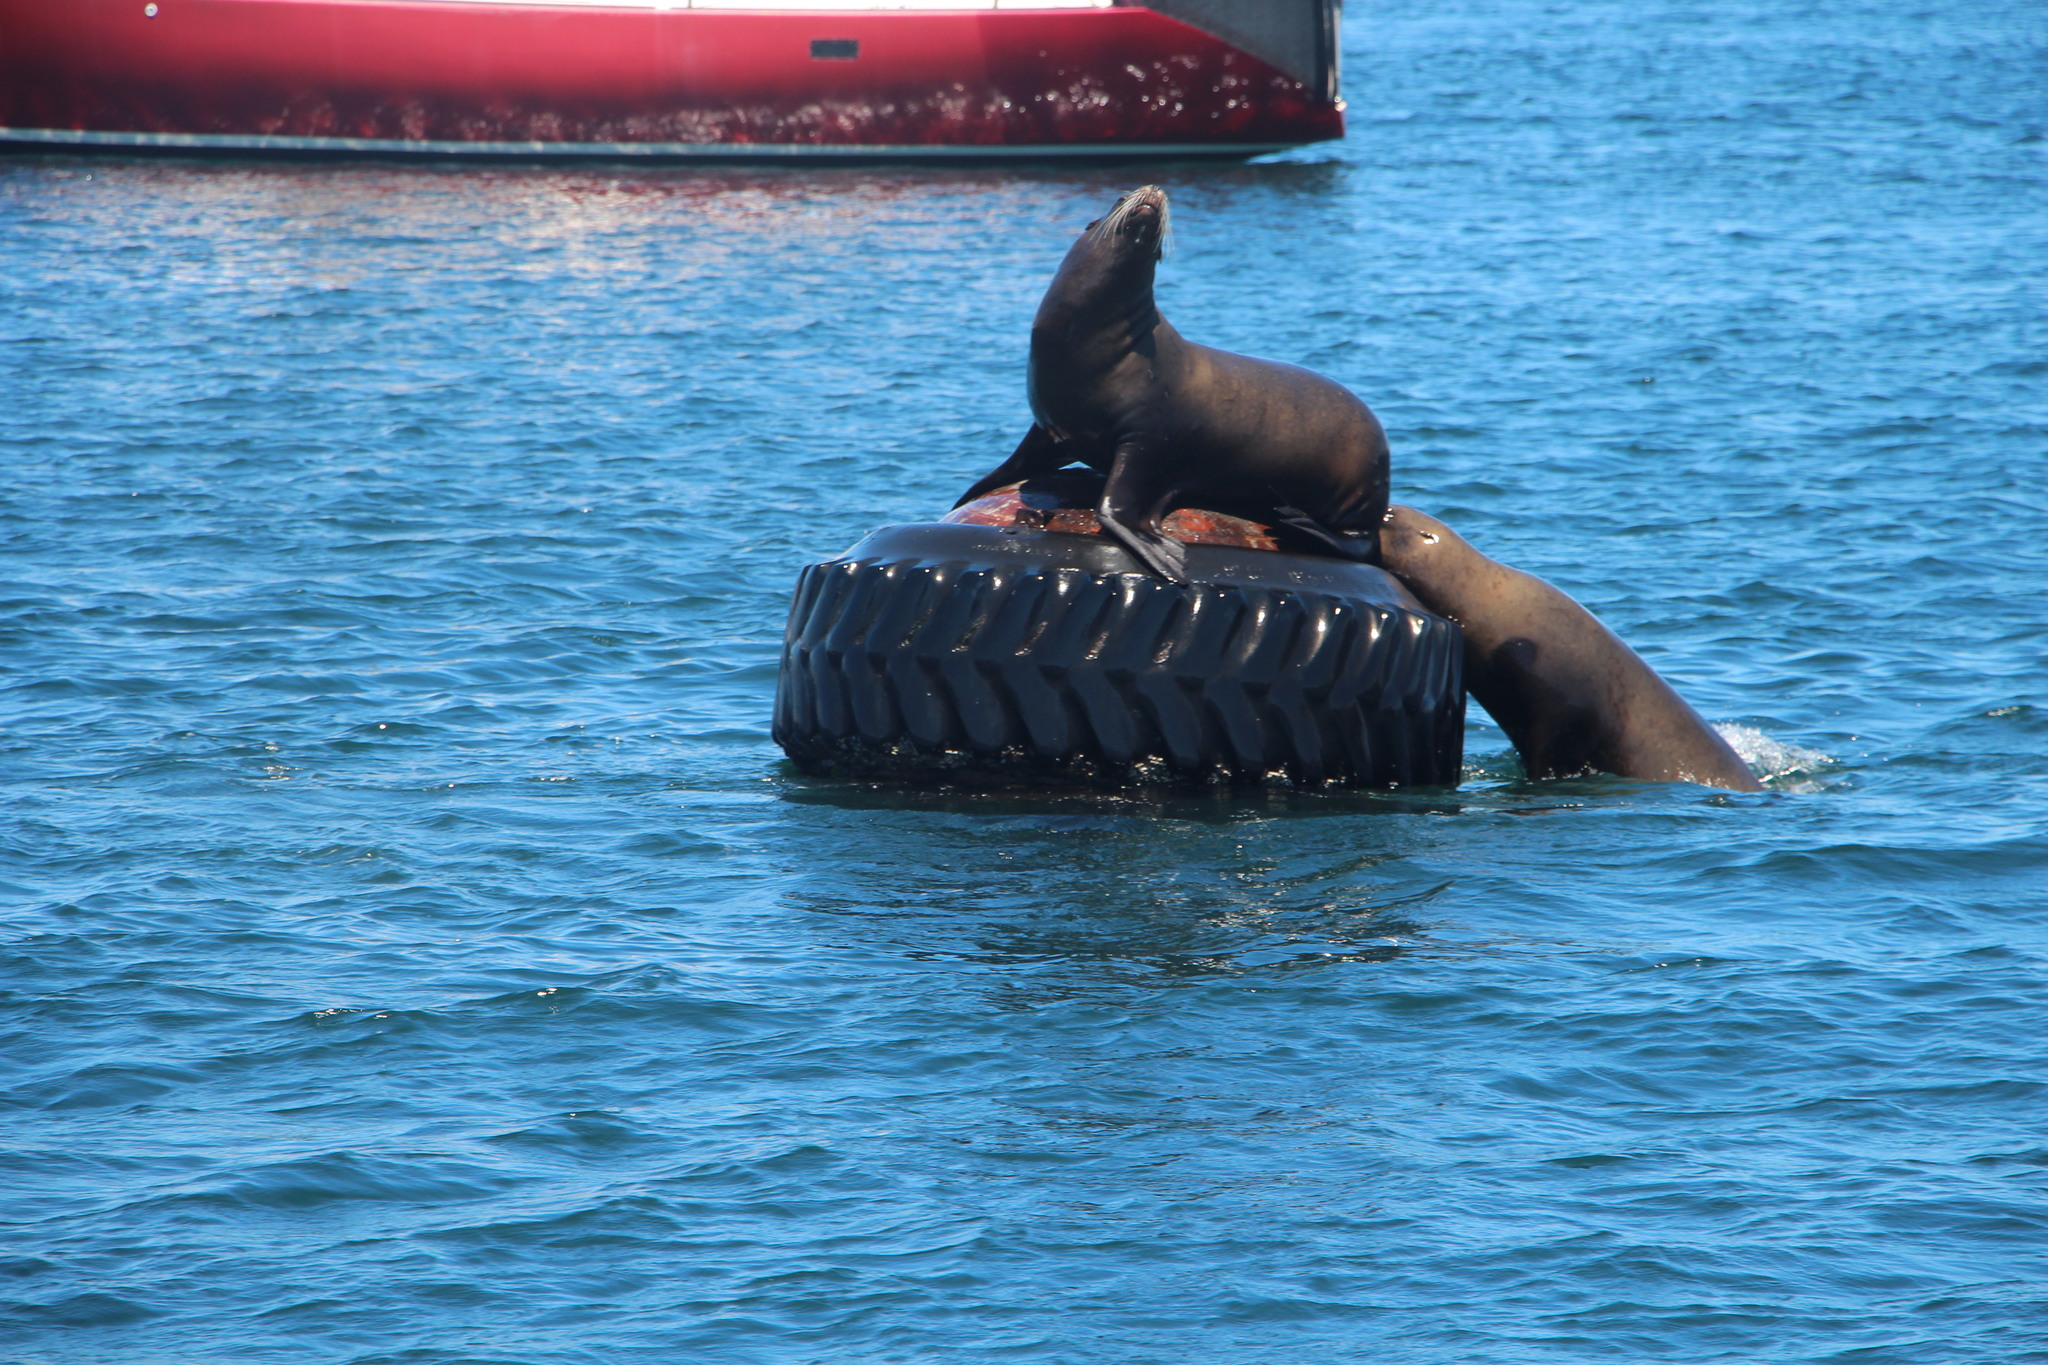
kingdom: Animalia
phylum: Chordata
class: Mammalia
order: Carnivora
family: Otariidae
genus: Zalophus
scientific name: Zalophus californianus
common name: California sea lion
